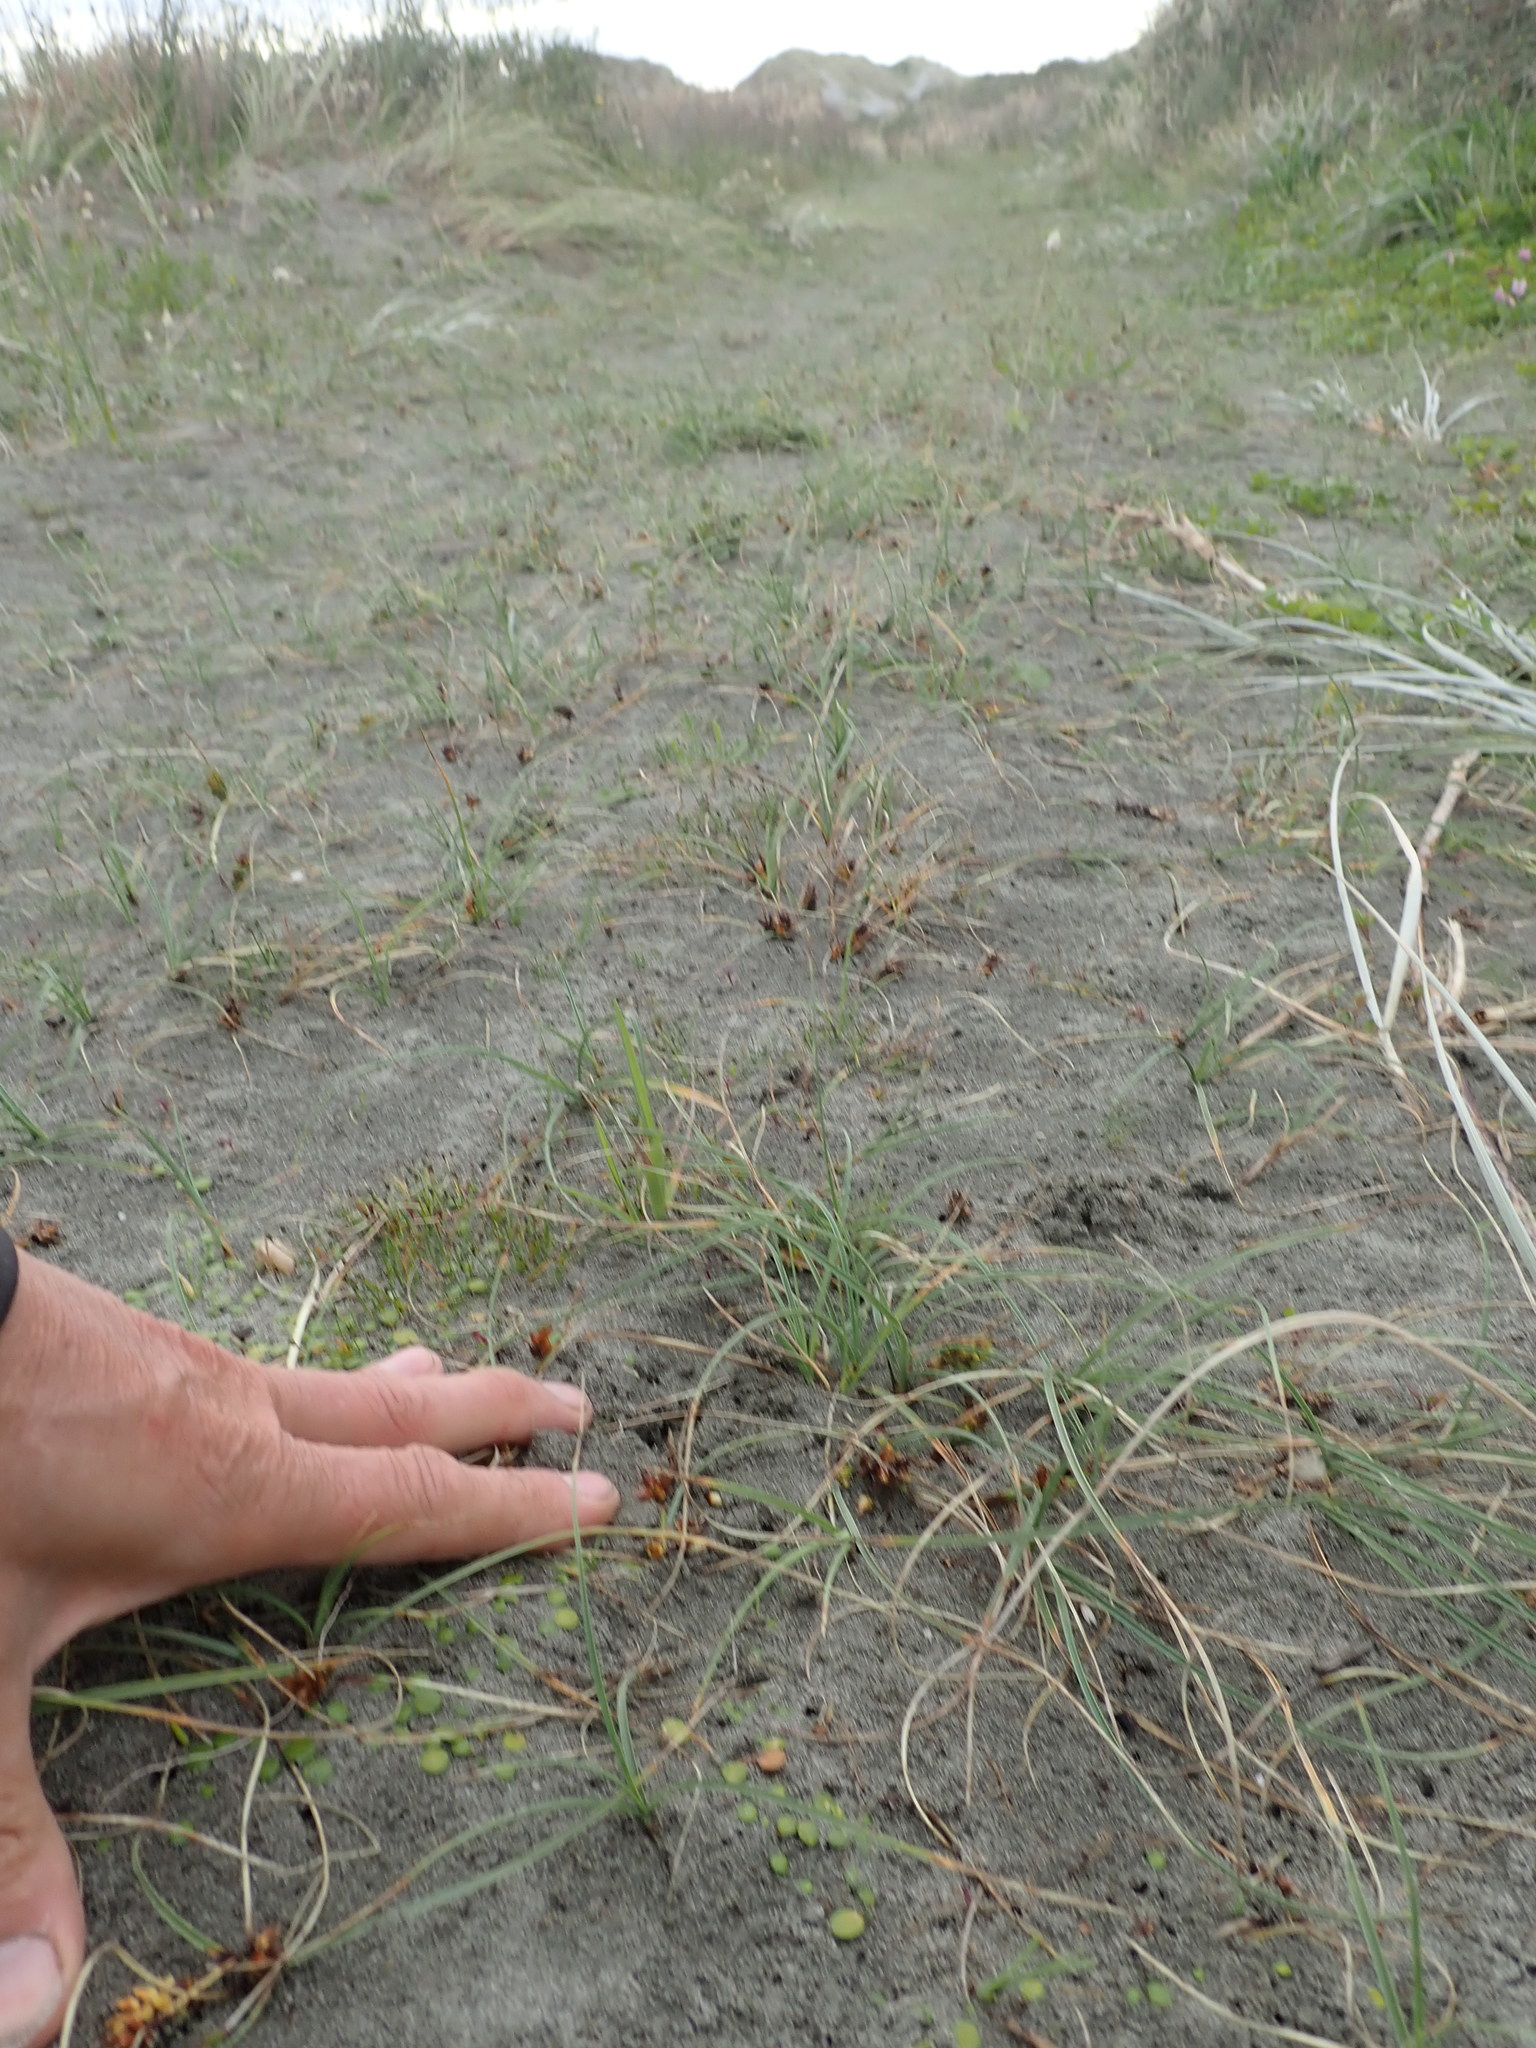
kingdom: Plantae
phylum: Tracheophyta
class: Liliopsida
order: Poales
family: Cyperaceae
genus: Carex
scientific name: Carex pumila
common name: Dwarf sedge
